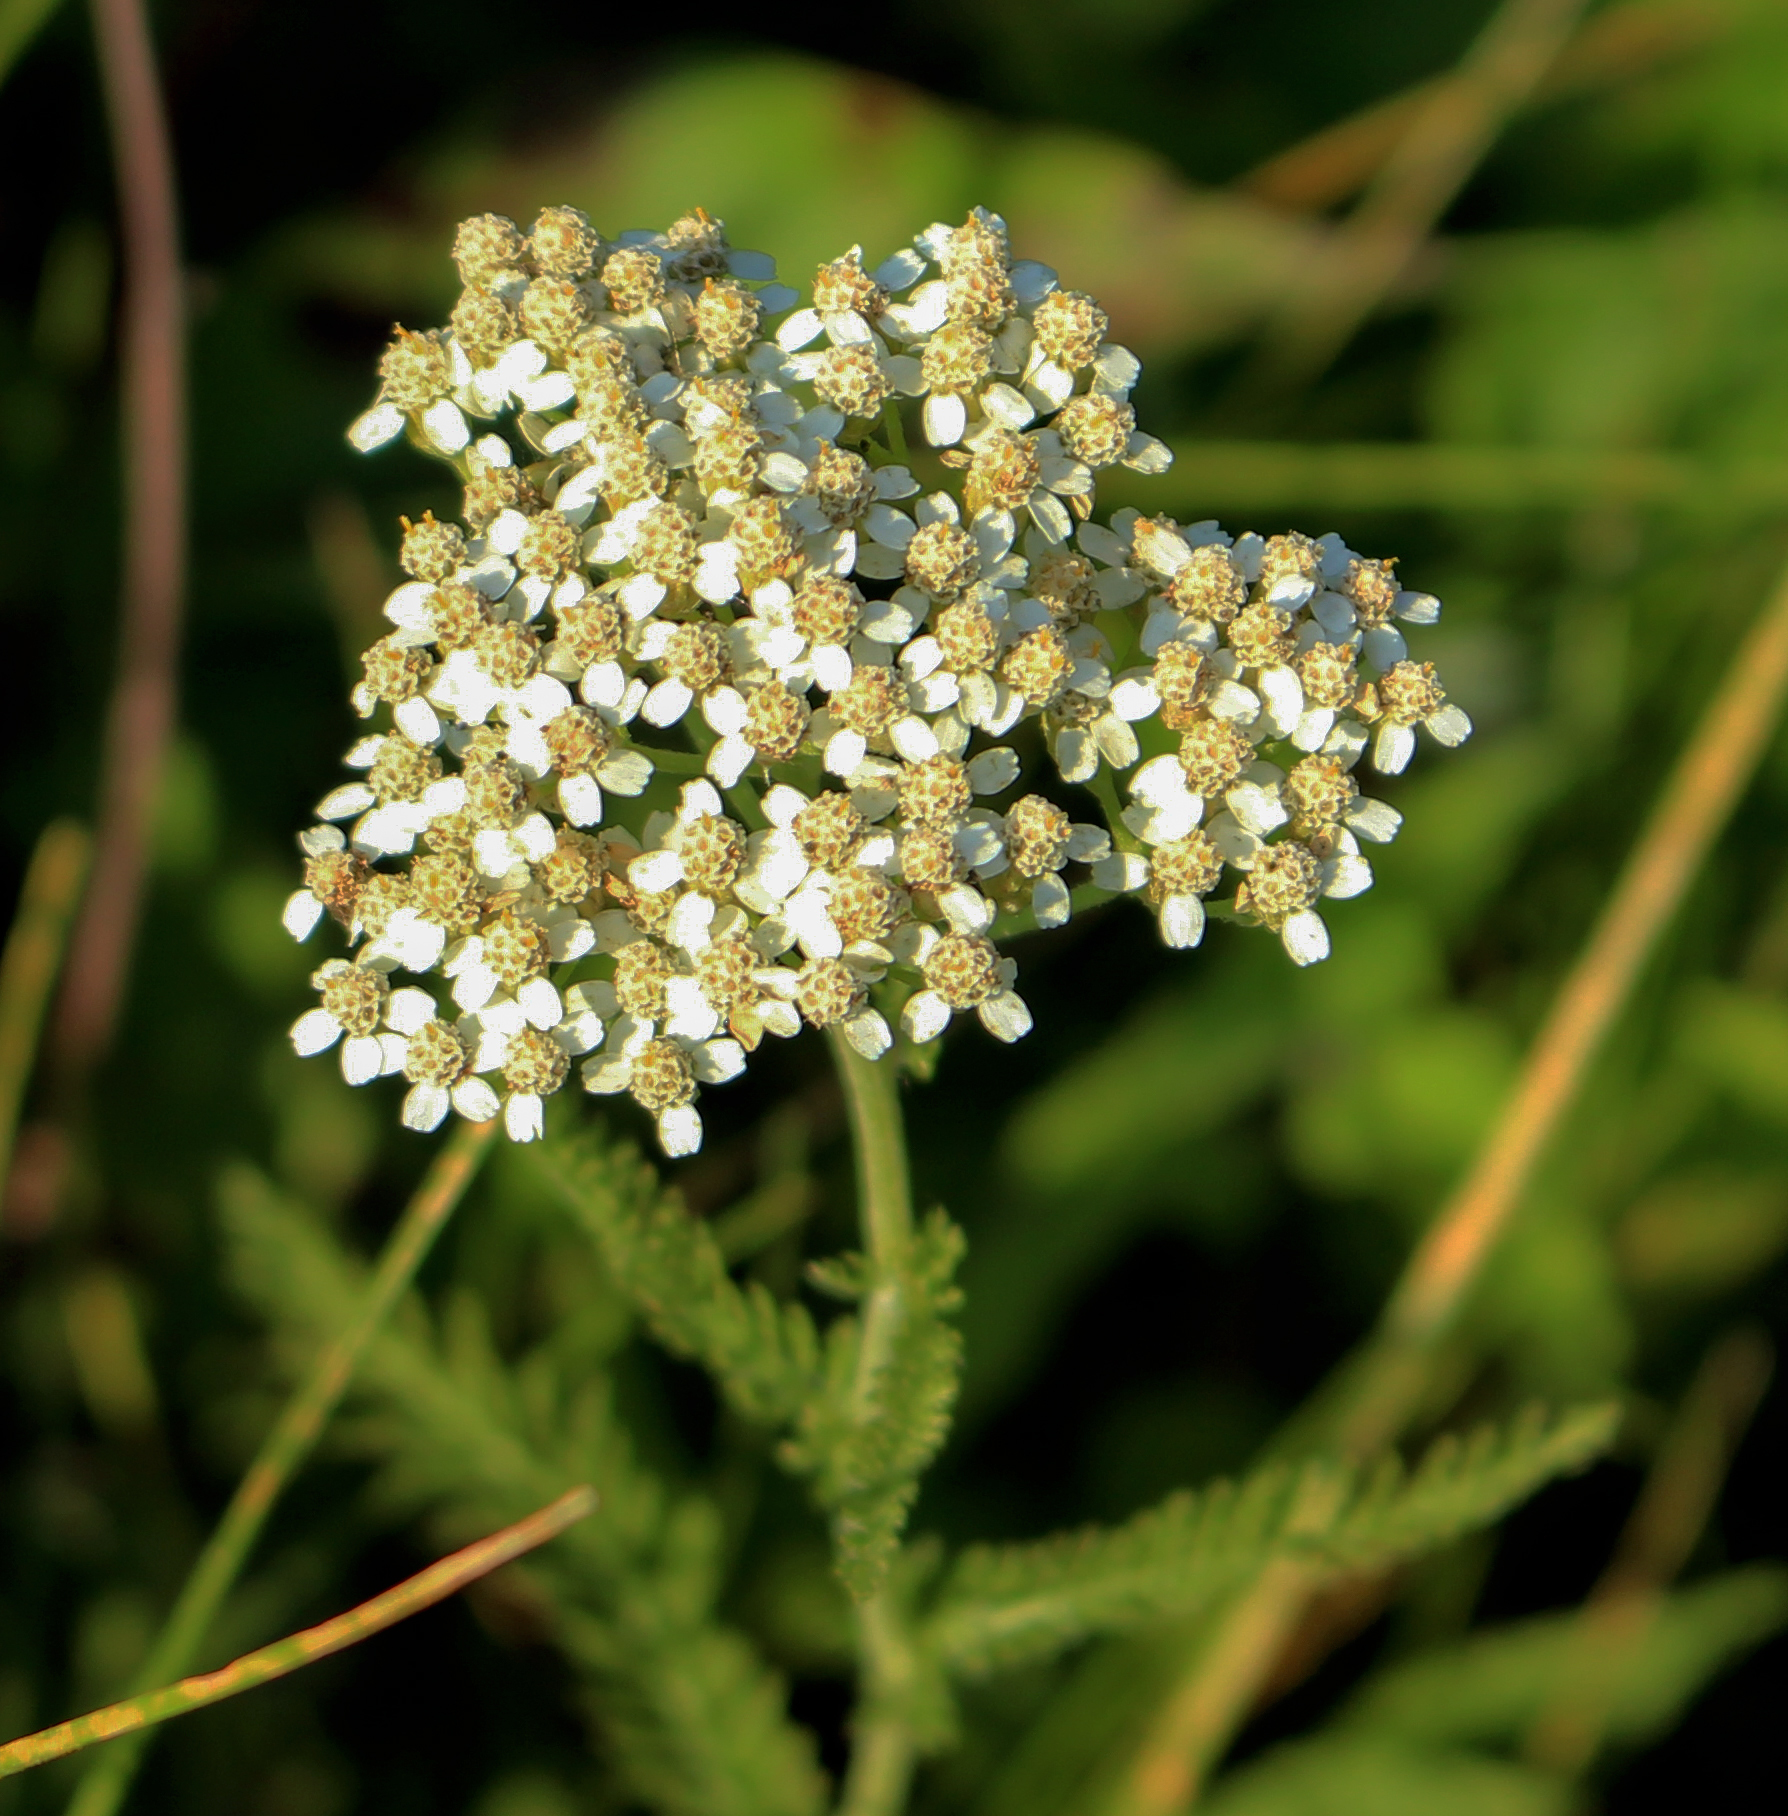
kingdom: Plantae
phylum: Tracheophyta
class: Magnoliopsida
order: Asterales
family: Asteraceae
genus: Achillea
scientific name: Achillea millefolium
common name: Yarrow
